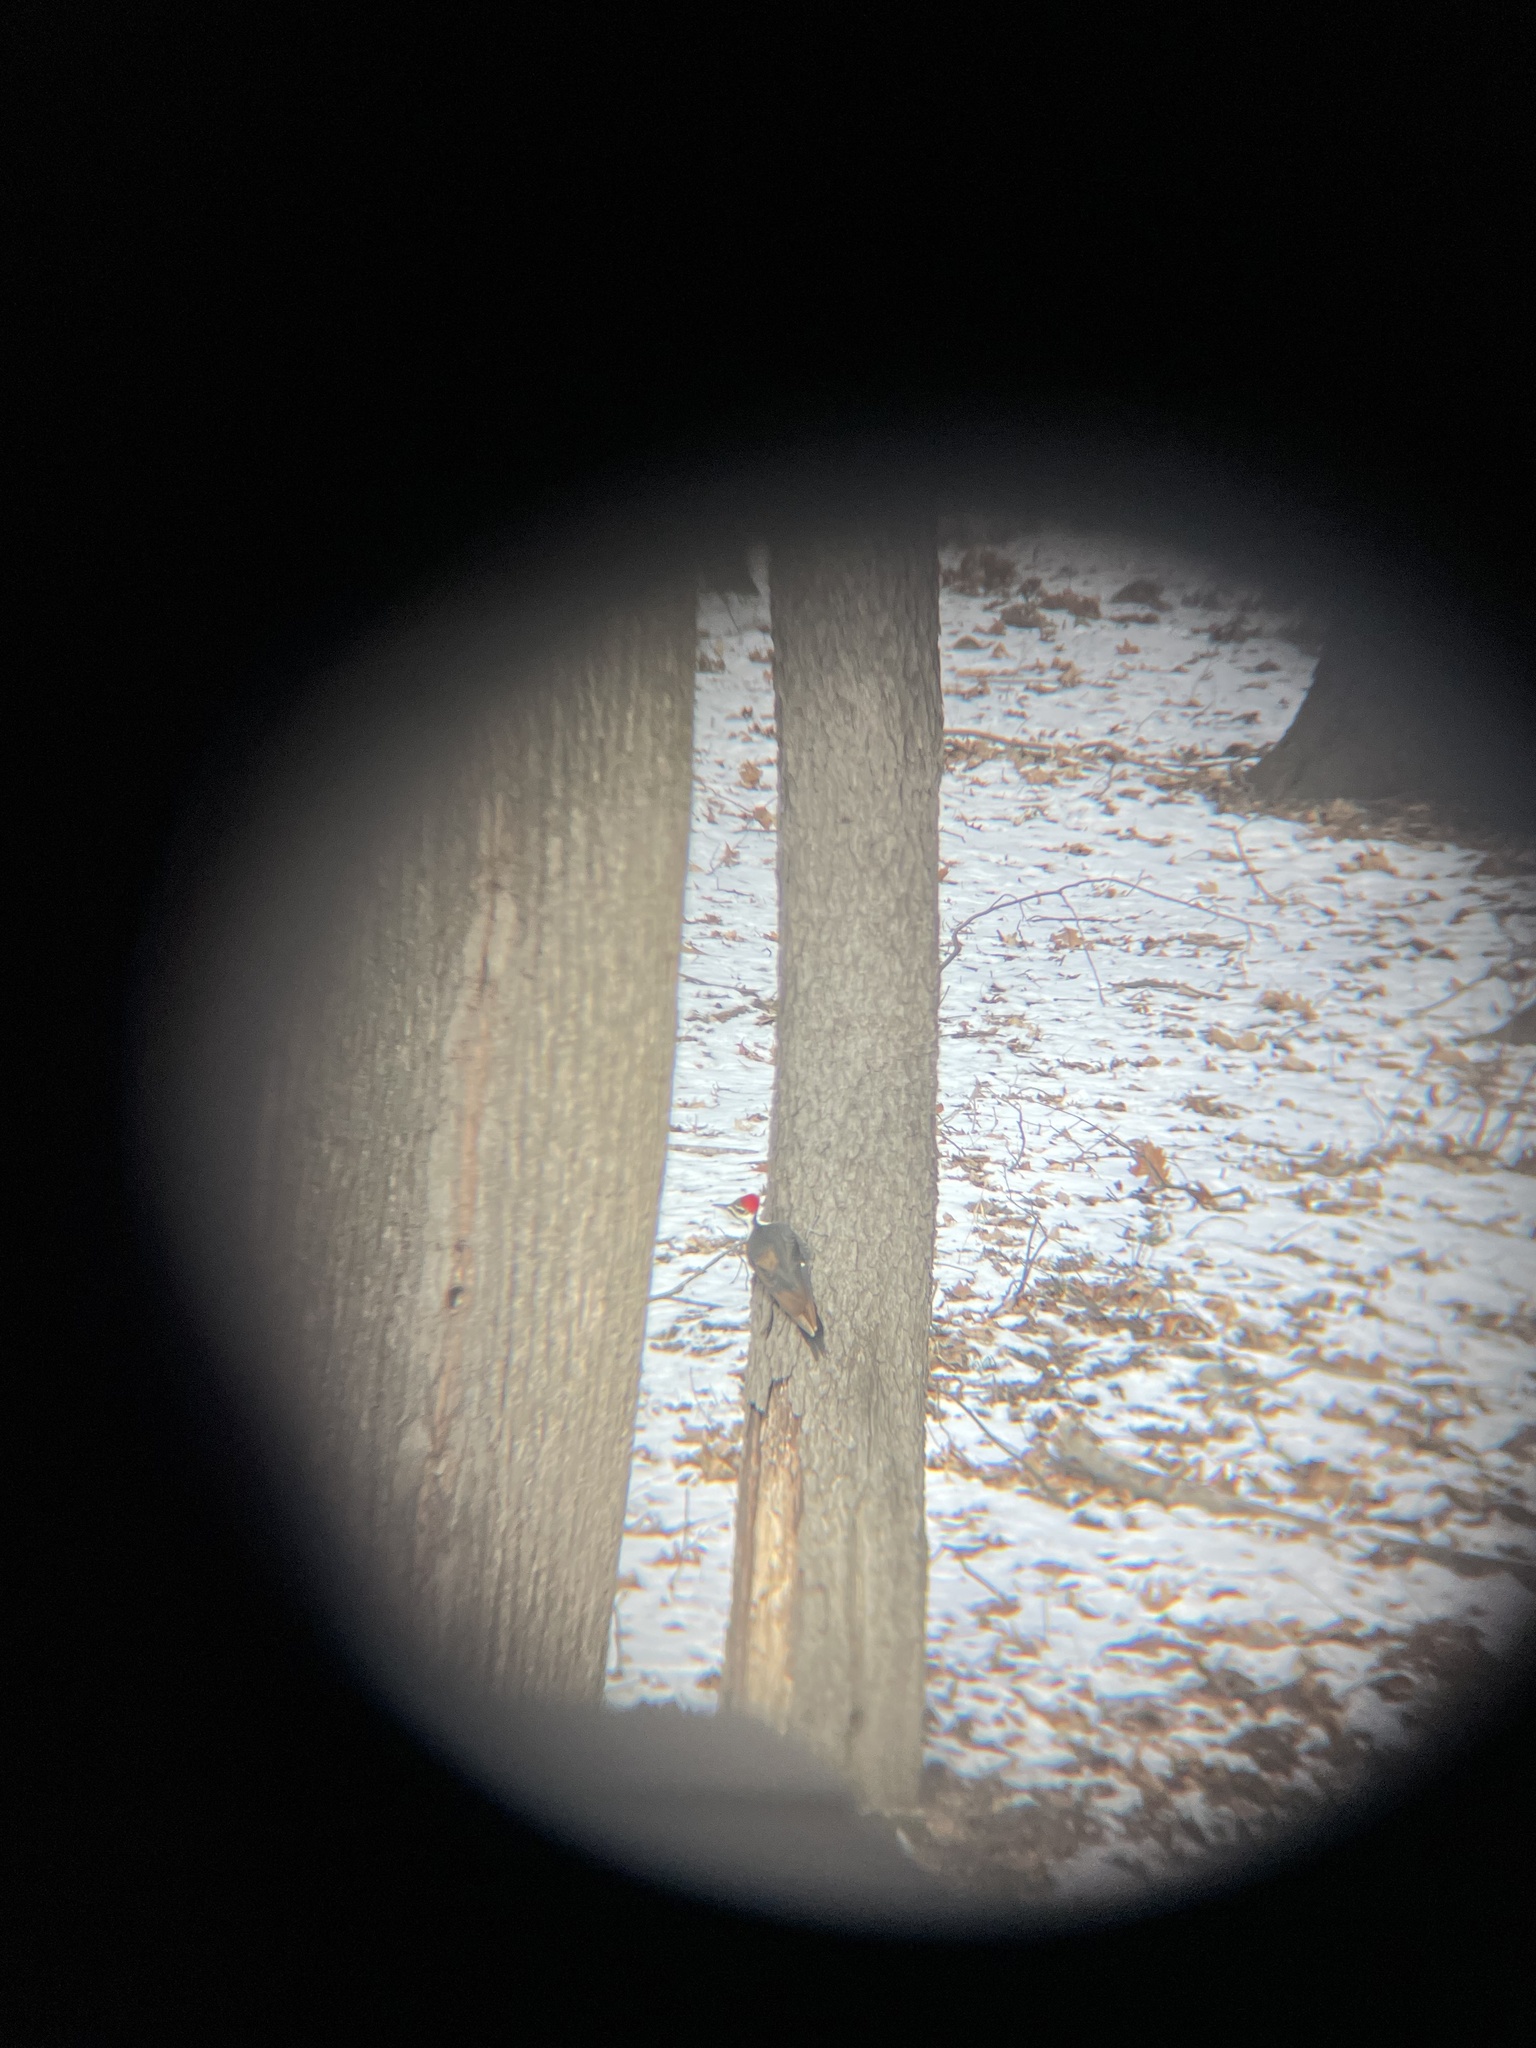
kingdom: Animalia
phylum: Chordata
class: Aves
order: Piciformes
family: Picidae
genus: Dryocopus
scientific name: Dryocopus pileatus
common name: Pileated woodpecker
